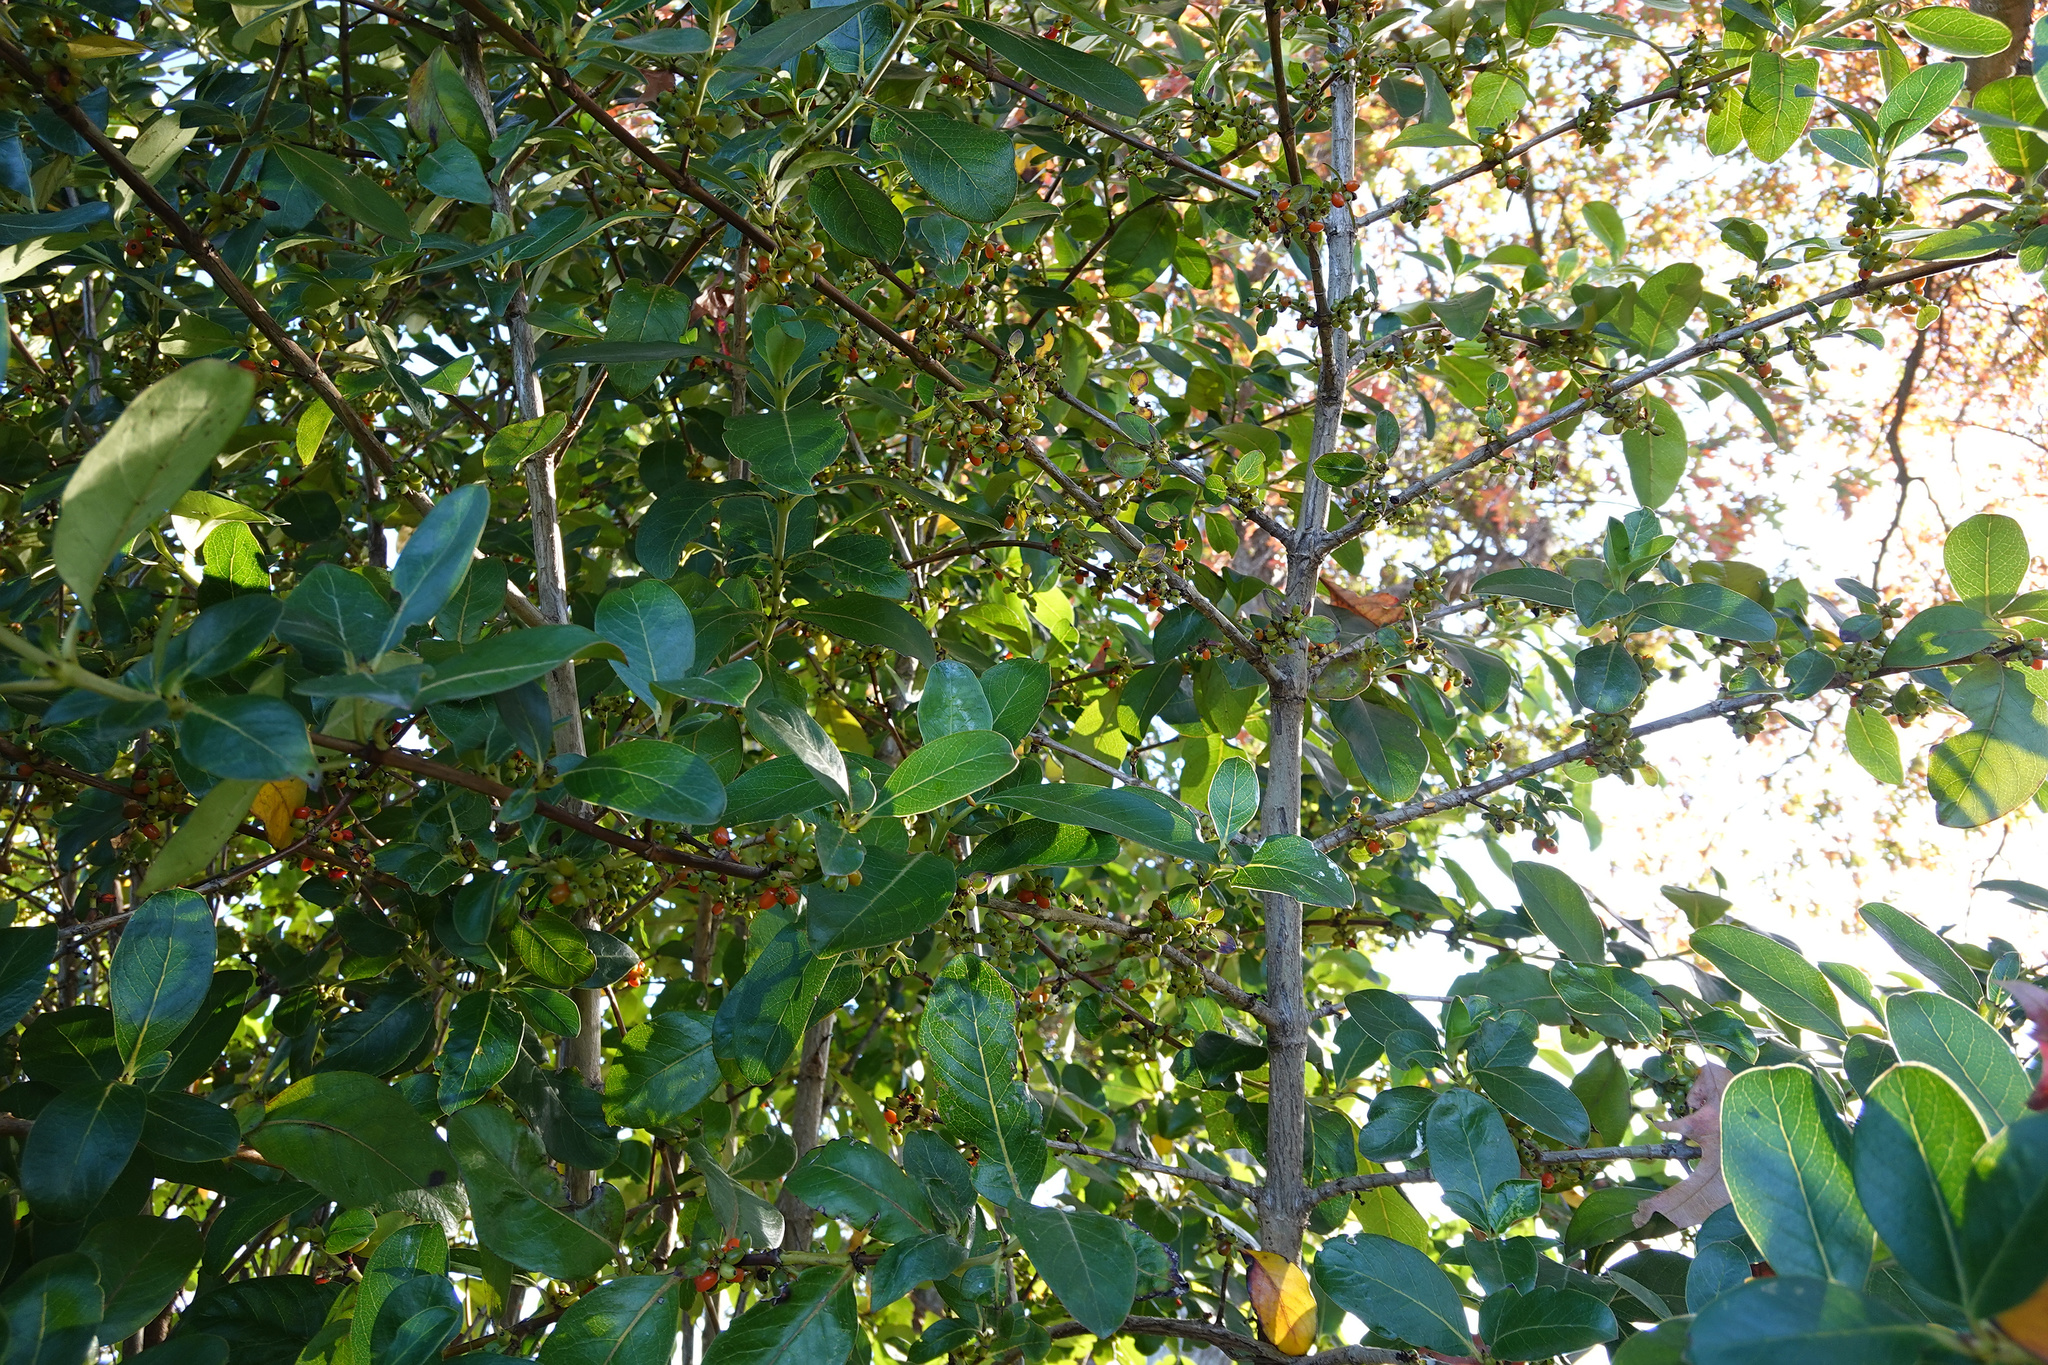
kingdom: Plantae
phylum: Tracheophyta
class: Magnoliopsida
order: Gentianales
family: Rubiaceae
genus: Coprosma
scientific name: Coprosma robusta
